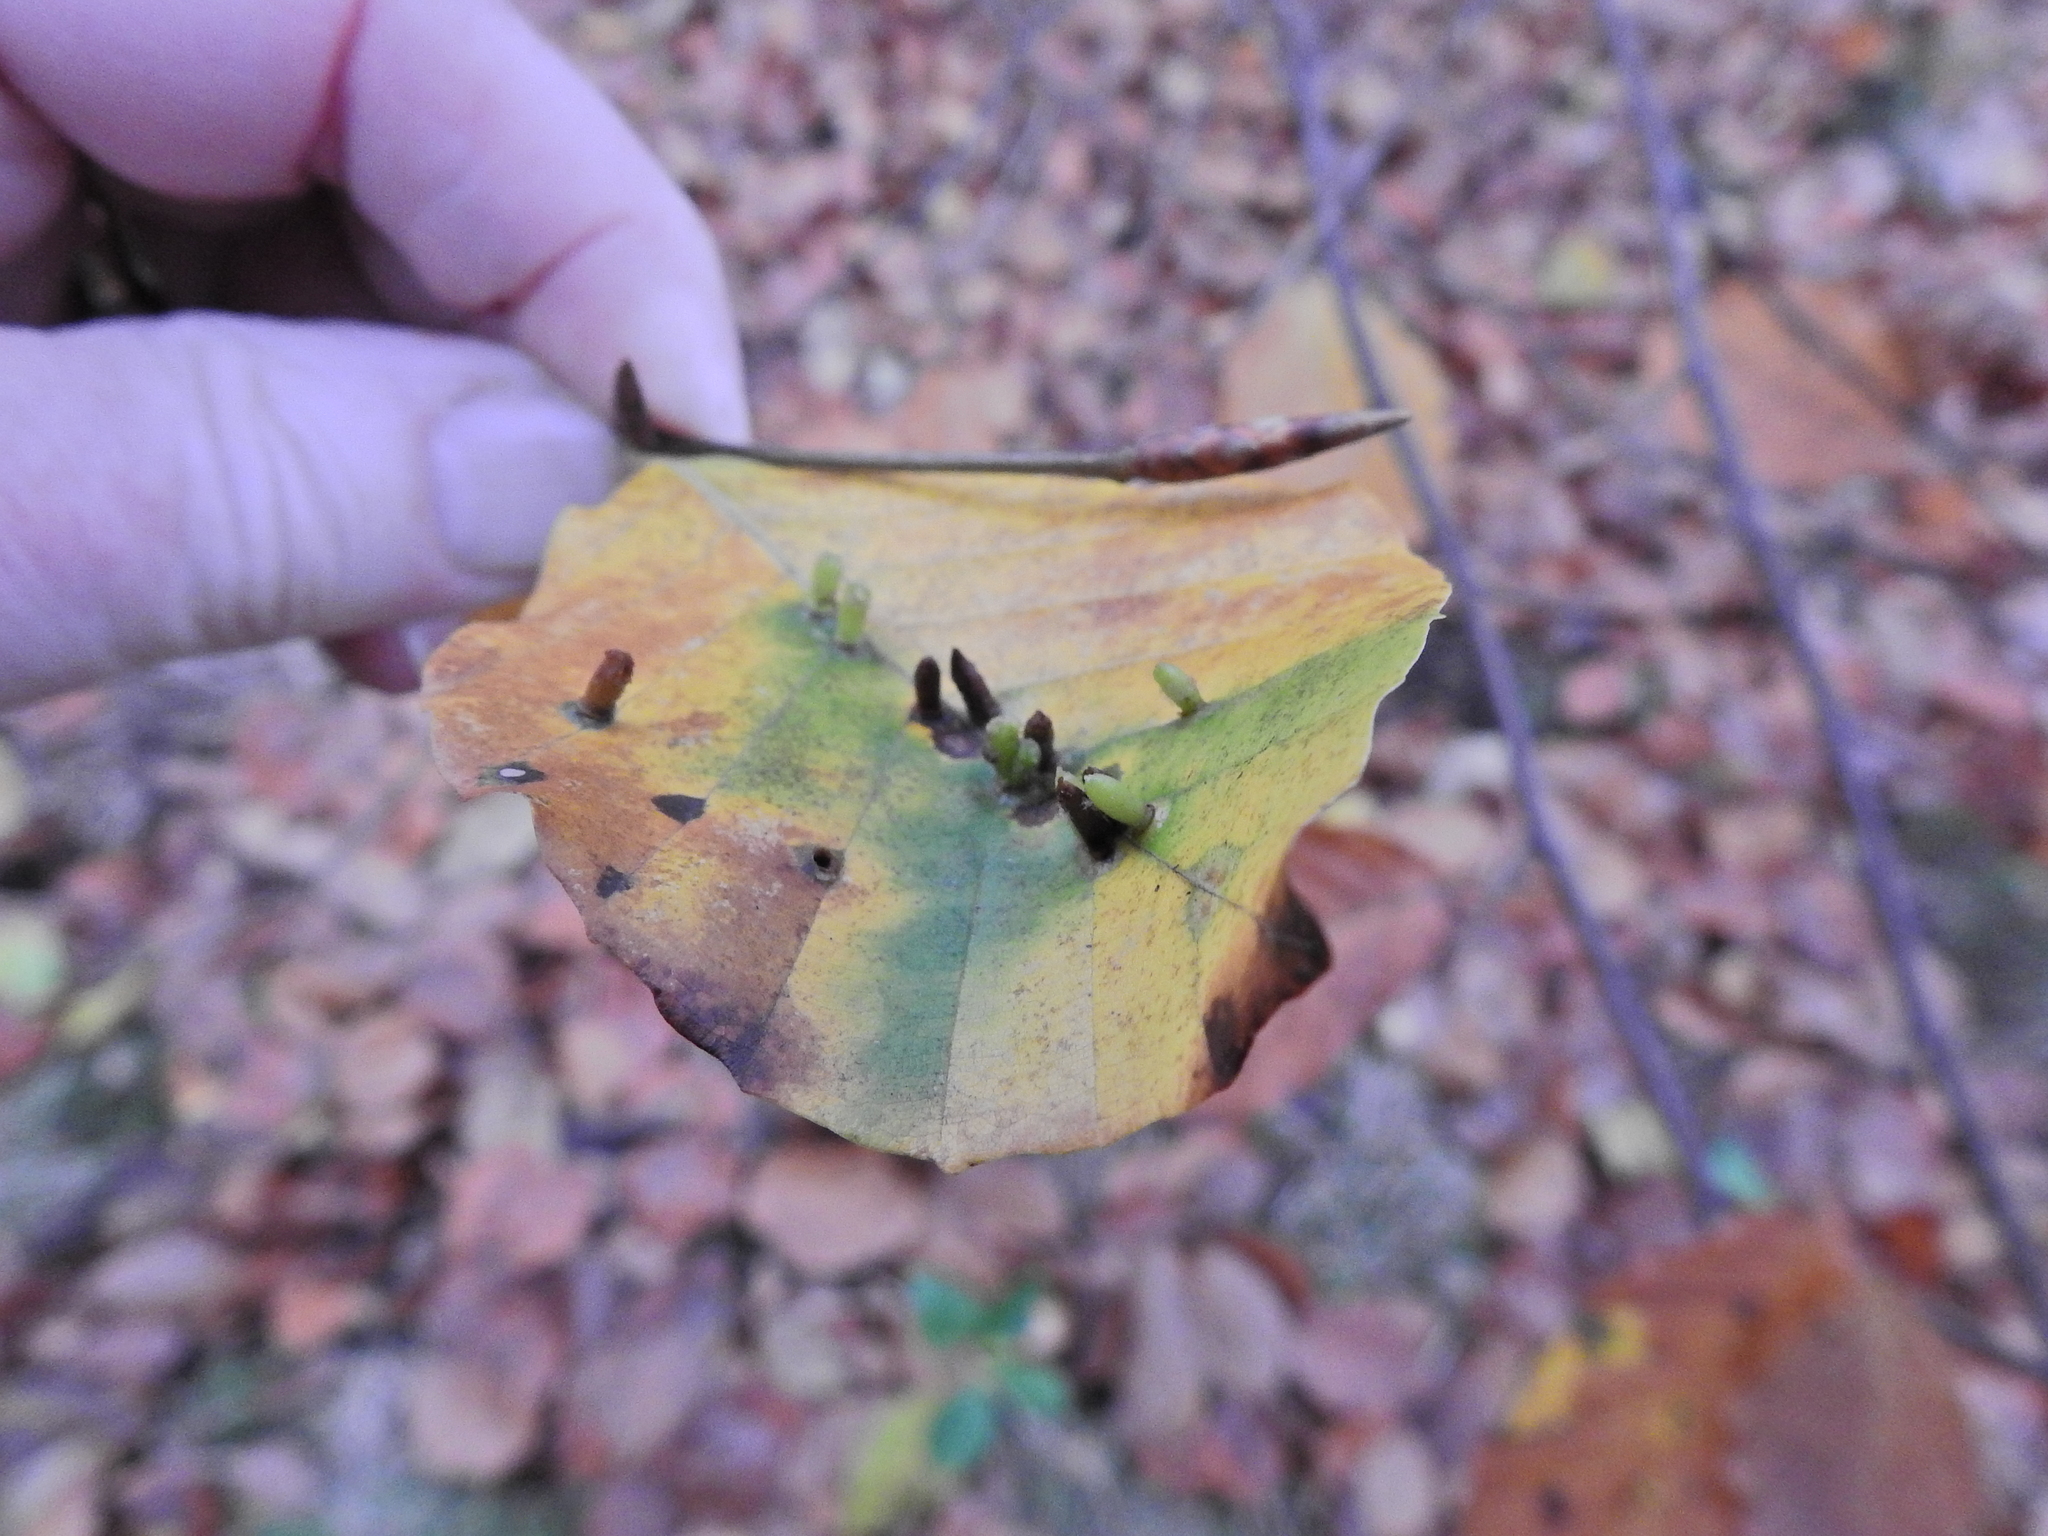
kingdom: Animalia
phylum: Arthropoda
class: Insecta
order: Diptera
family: Cecidomyiidae
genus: Hartigiola
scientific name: Hartigiola annulipes
